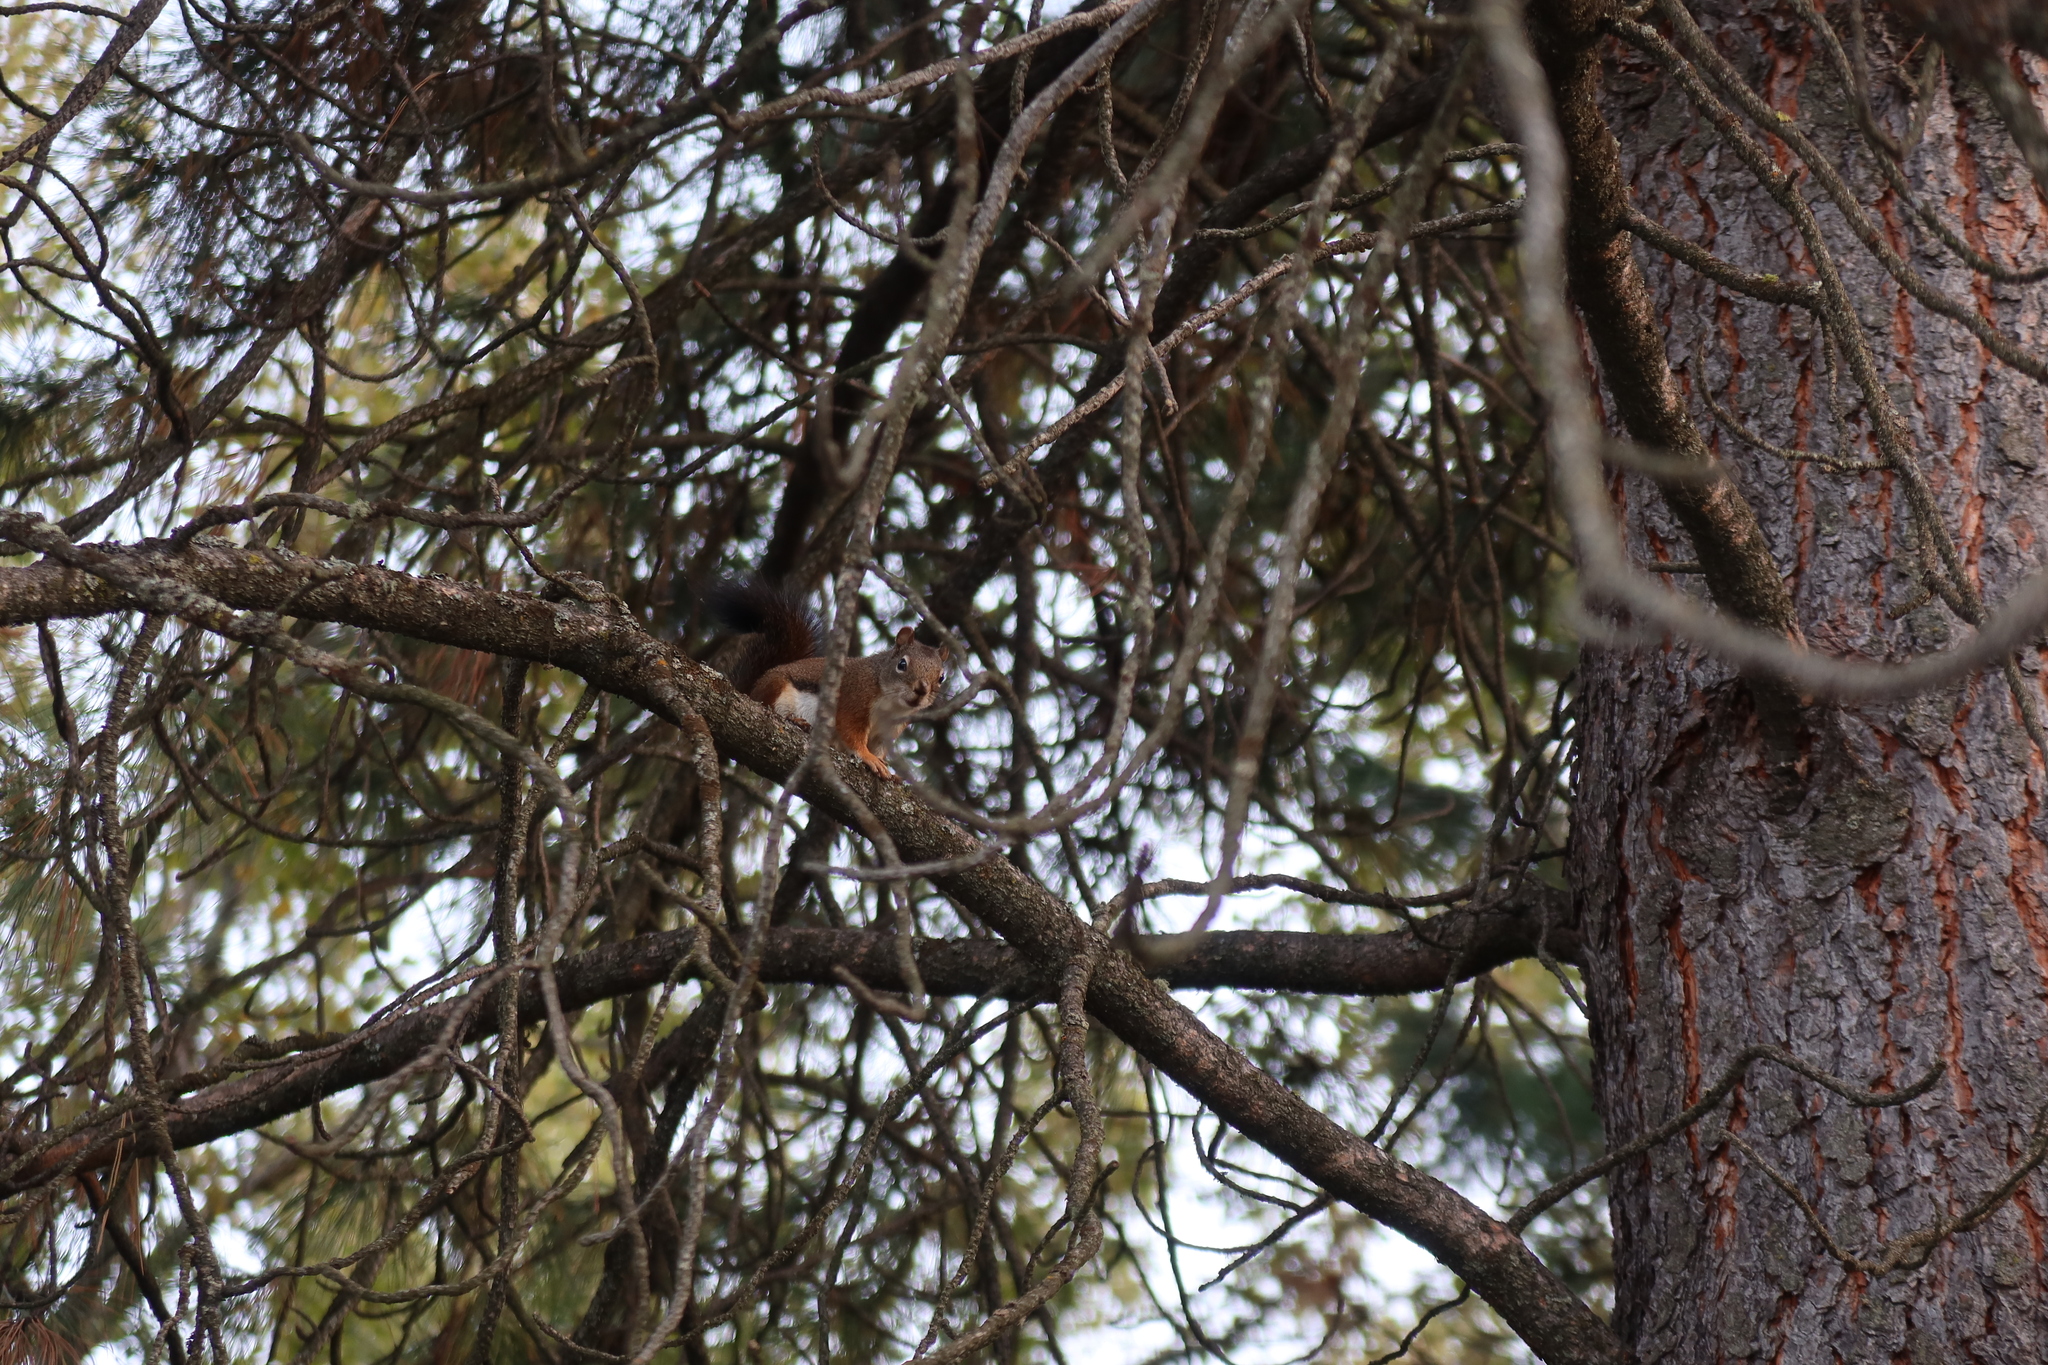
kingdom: Animalia
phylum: Chordata
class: Mammalia
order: Rodentia
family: Sciuridae
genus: Tamiasciurus
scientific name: Tamiasciurus hudsonicus
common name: Red squirrel
